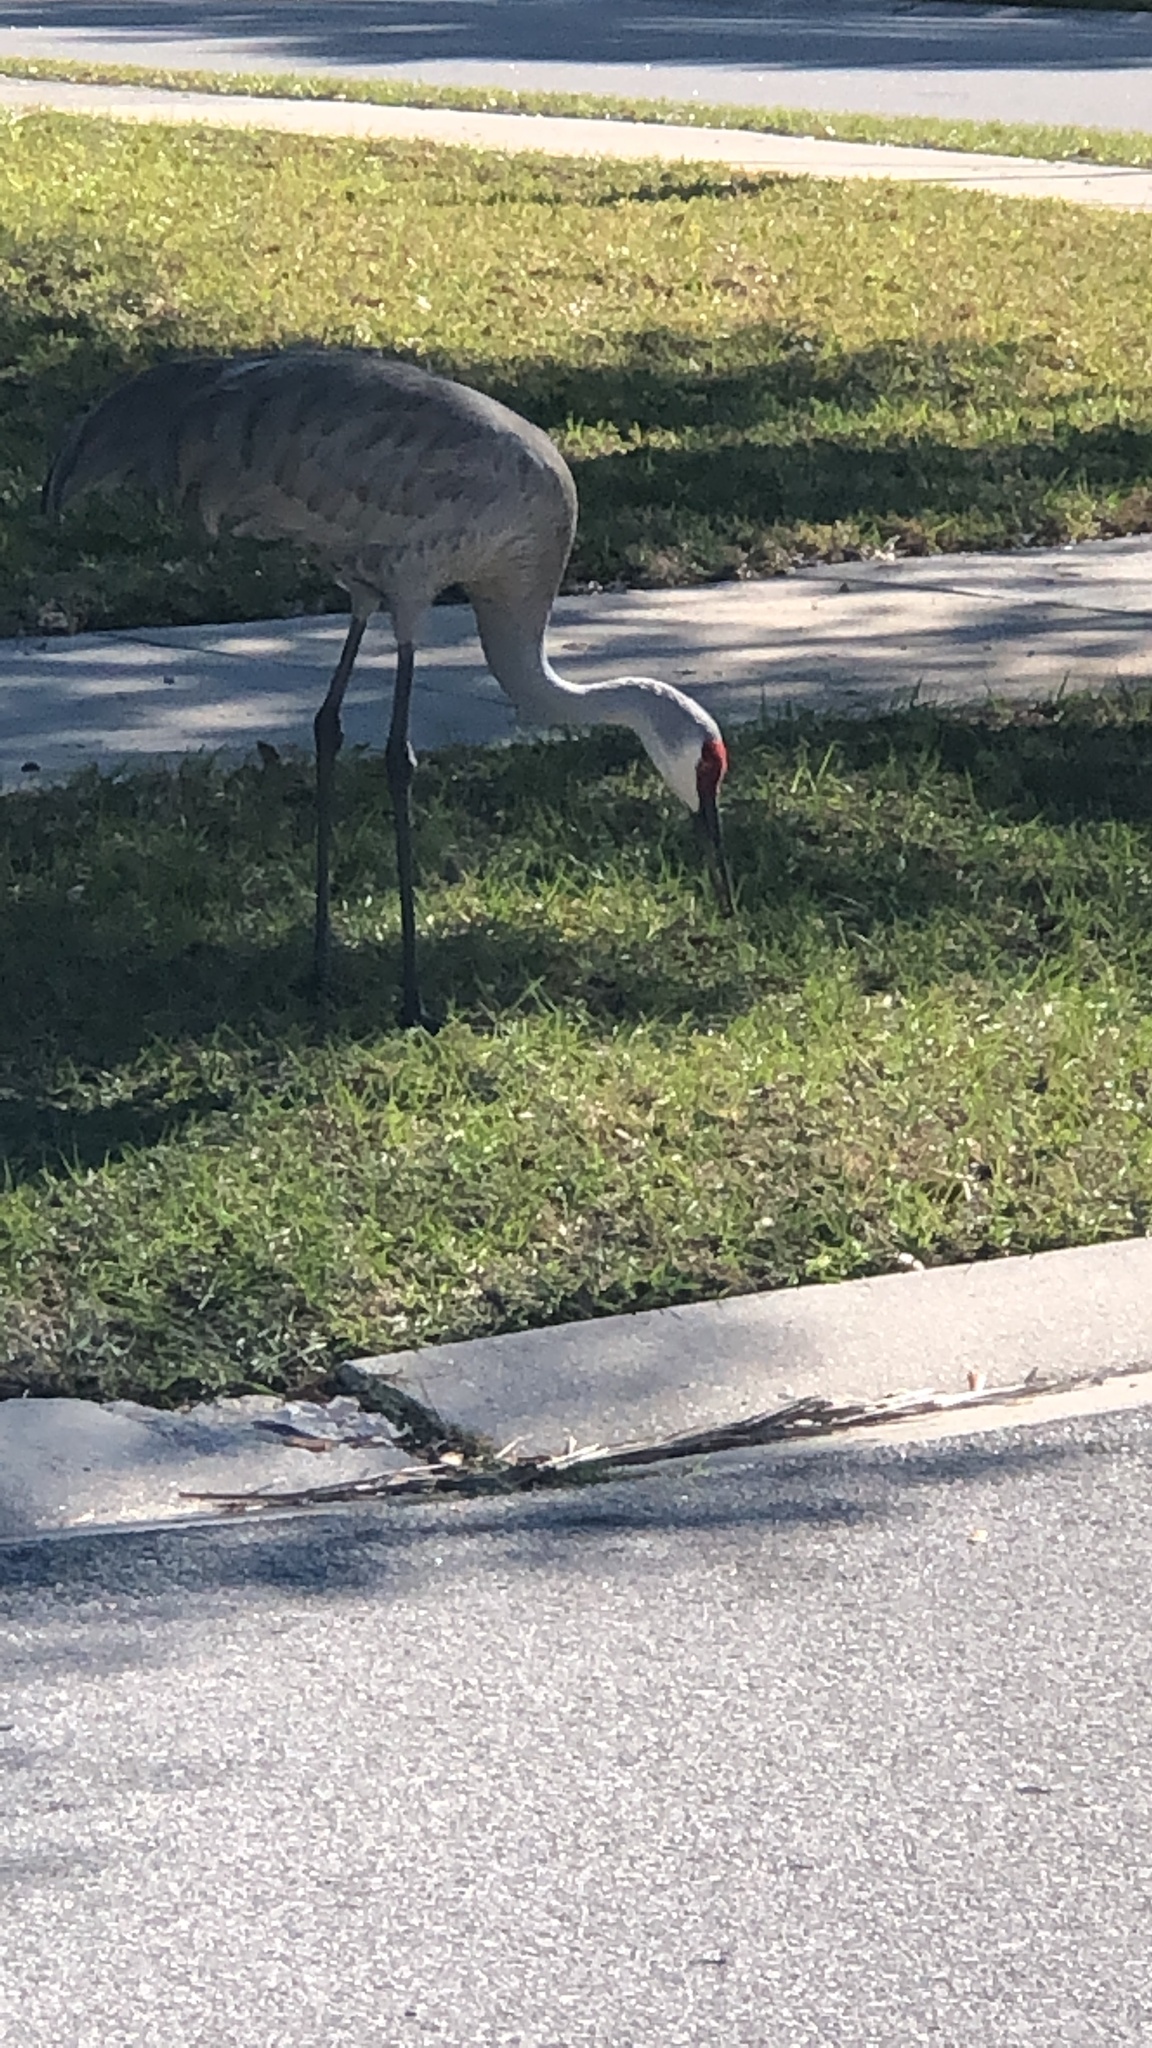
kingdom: Animalia
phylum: Chordata
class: Aves
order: Gruiformes
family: Gruidae
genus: Grus
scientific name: Grus canadensis
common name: Sandhill crane
